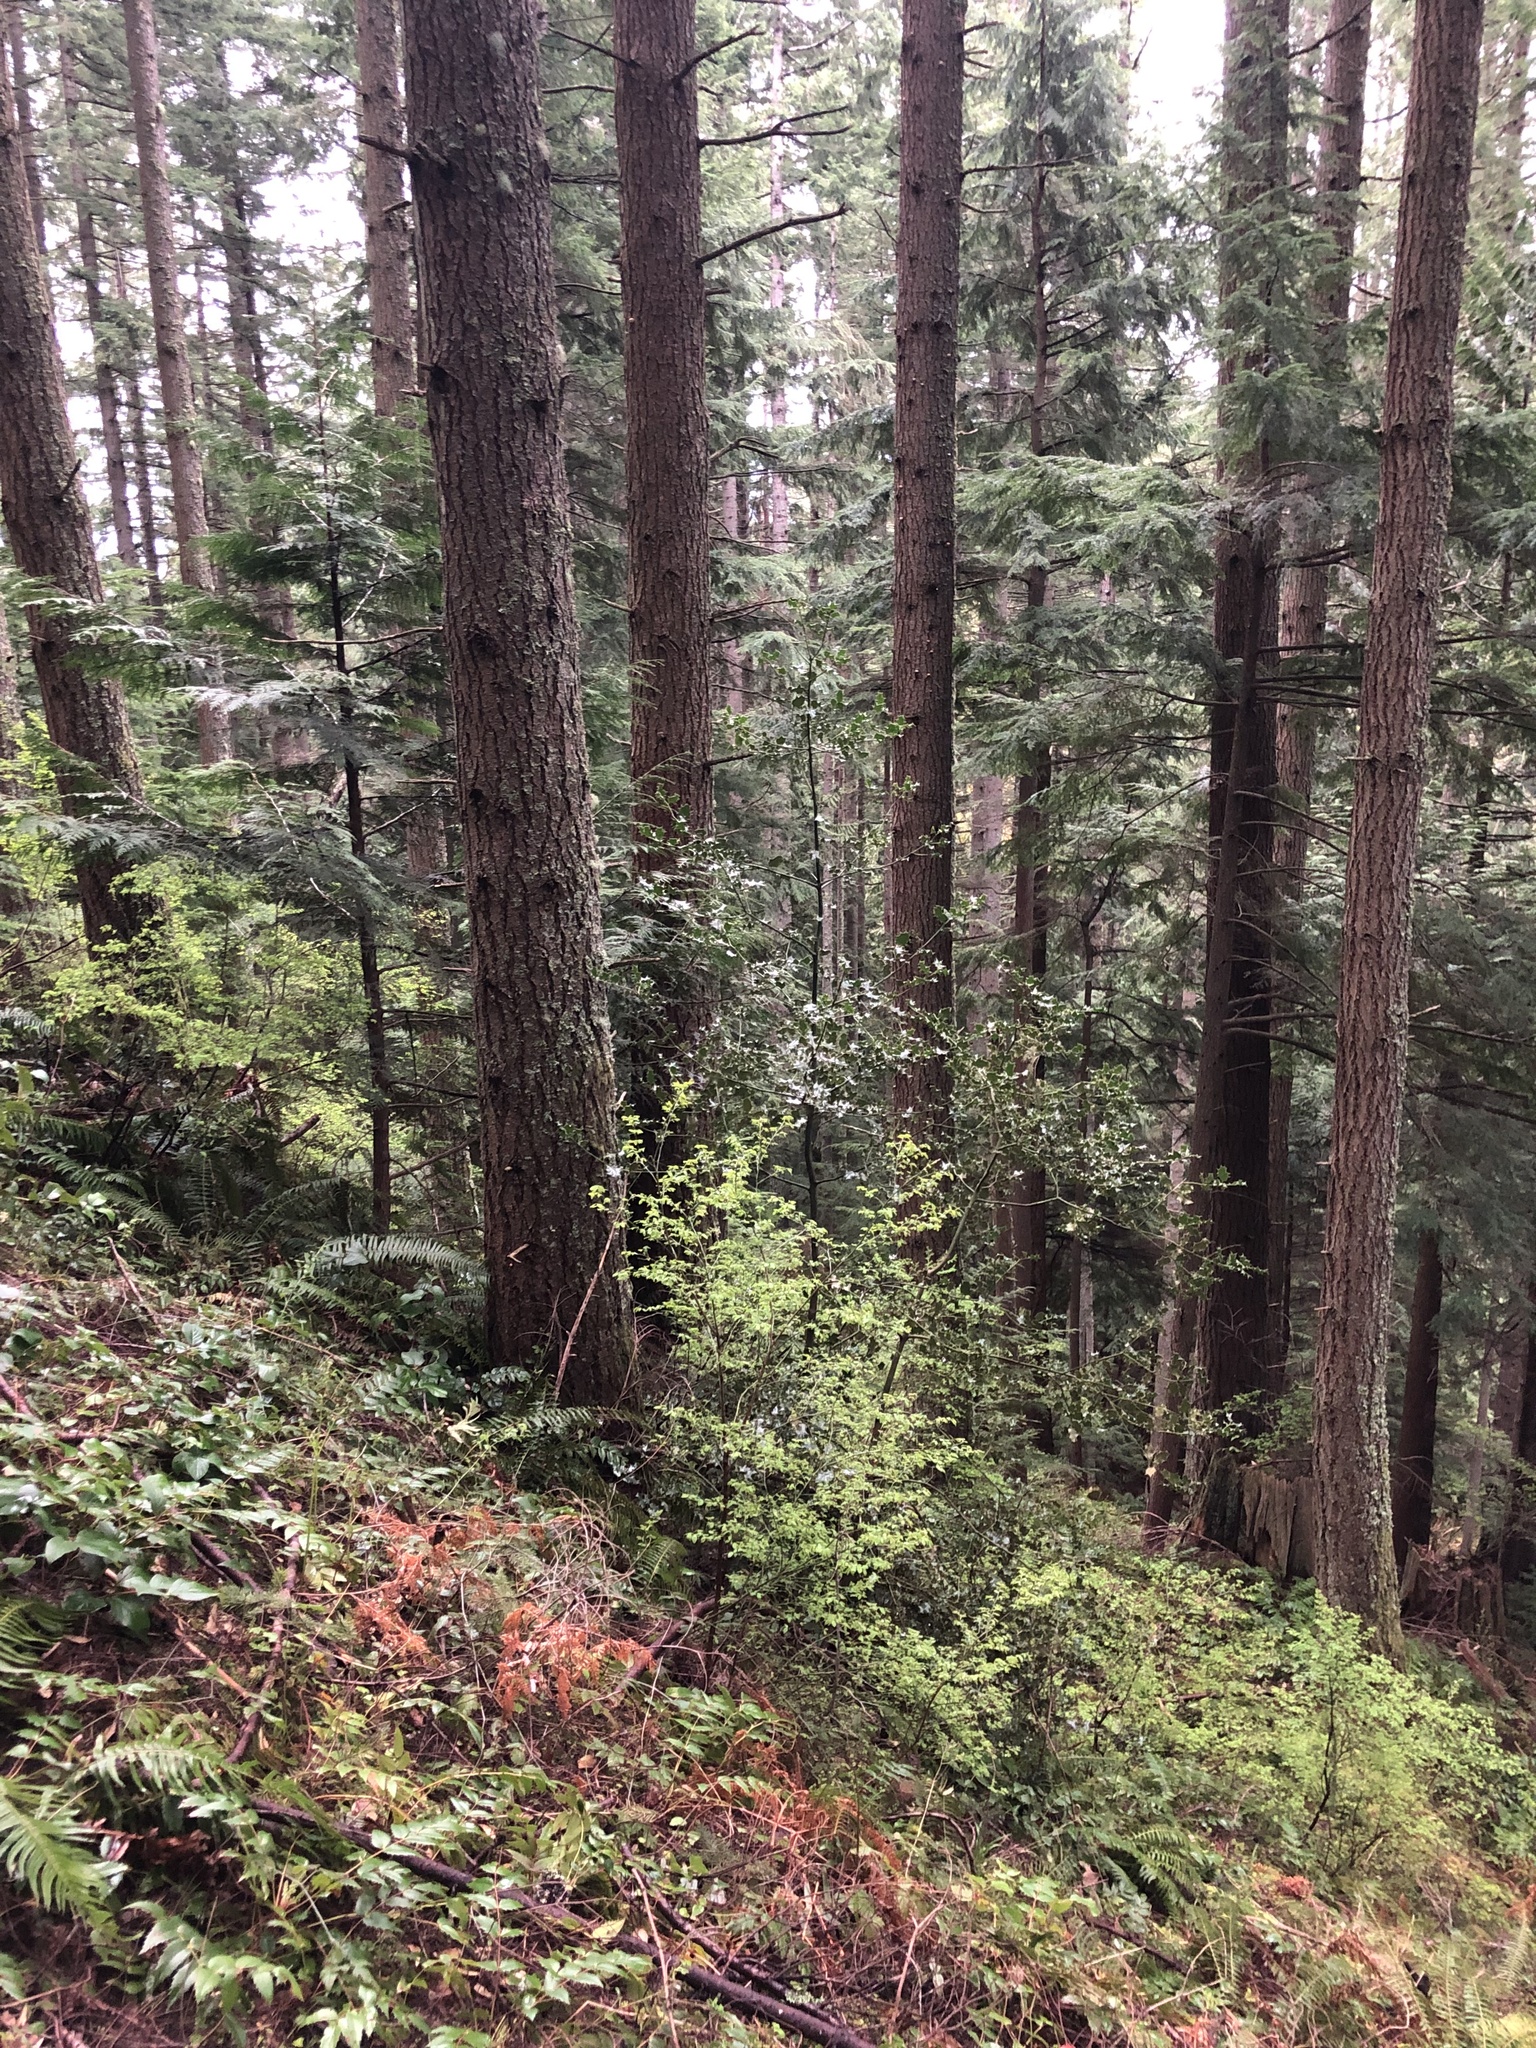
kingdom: Plantae
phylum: Tracheophyta
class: Magnoliopsida
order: Aquifoliales
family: Aquifoliaceae
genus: Ilex
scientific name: Ilex aquifolium
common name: English holly
